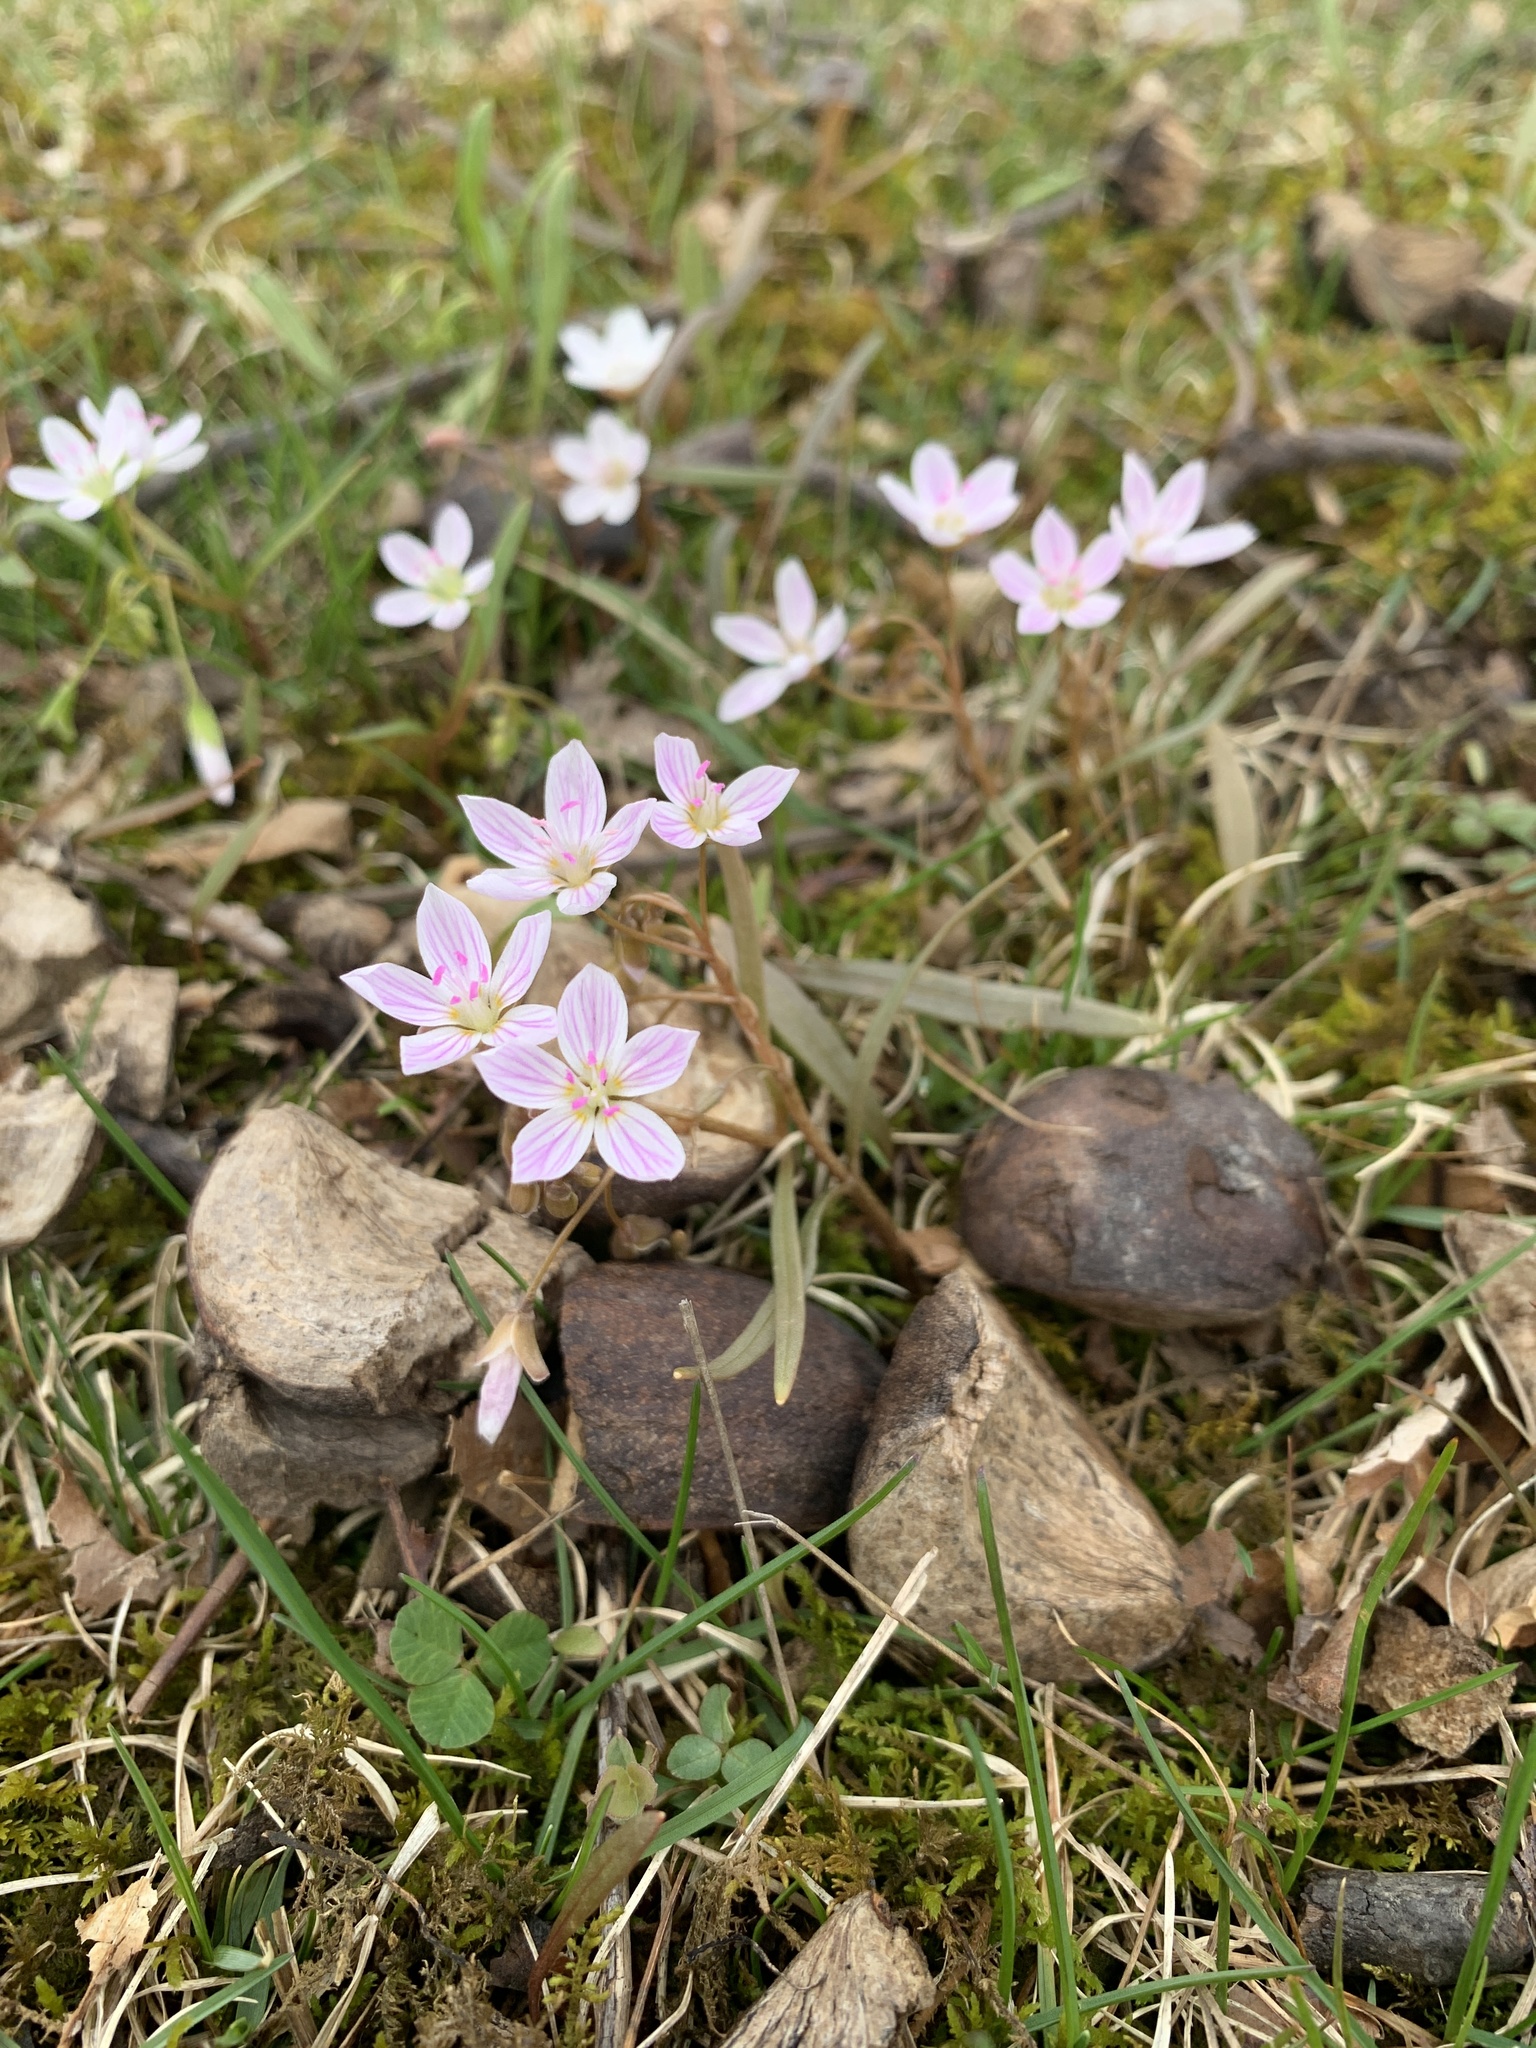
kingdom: Plantae
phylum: Tracheophyta
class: Magnoliopsida
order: Caryophyllales
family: Montiaceae
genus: Claytonia
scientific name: Claytonia virginica
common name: Virginia springbeauty
